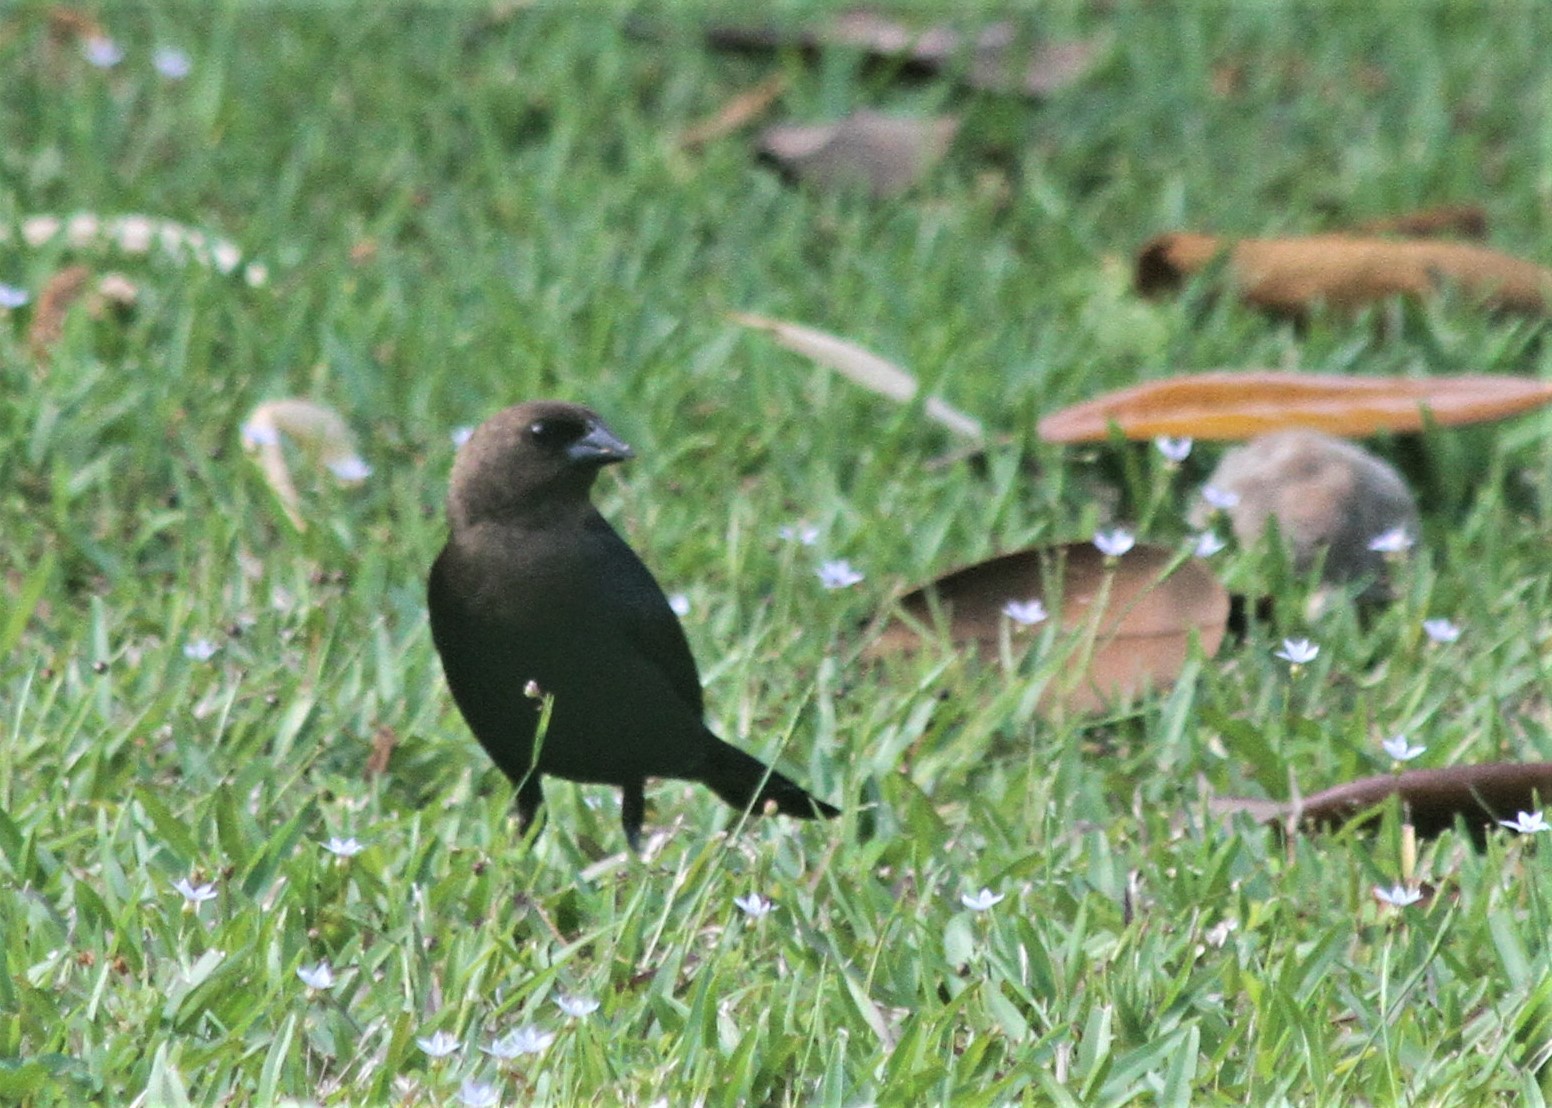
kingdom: Animalia
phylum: Chordata
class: Aves
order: Passeriformes
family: Icteridae
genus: Molothrus
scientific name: Molothrus ater
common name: Brown-headed cowbird
